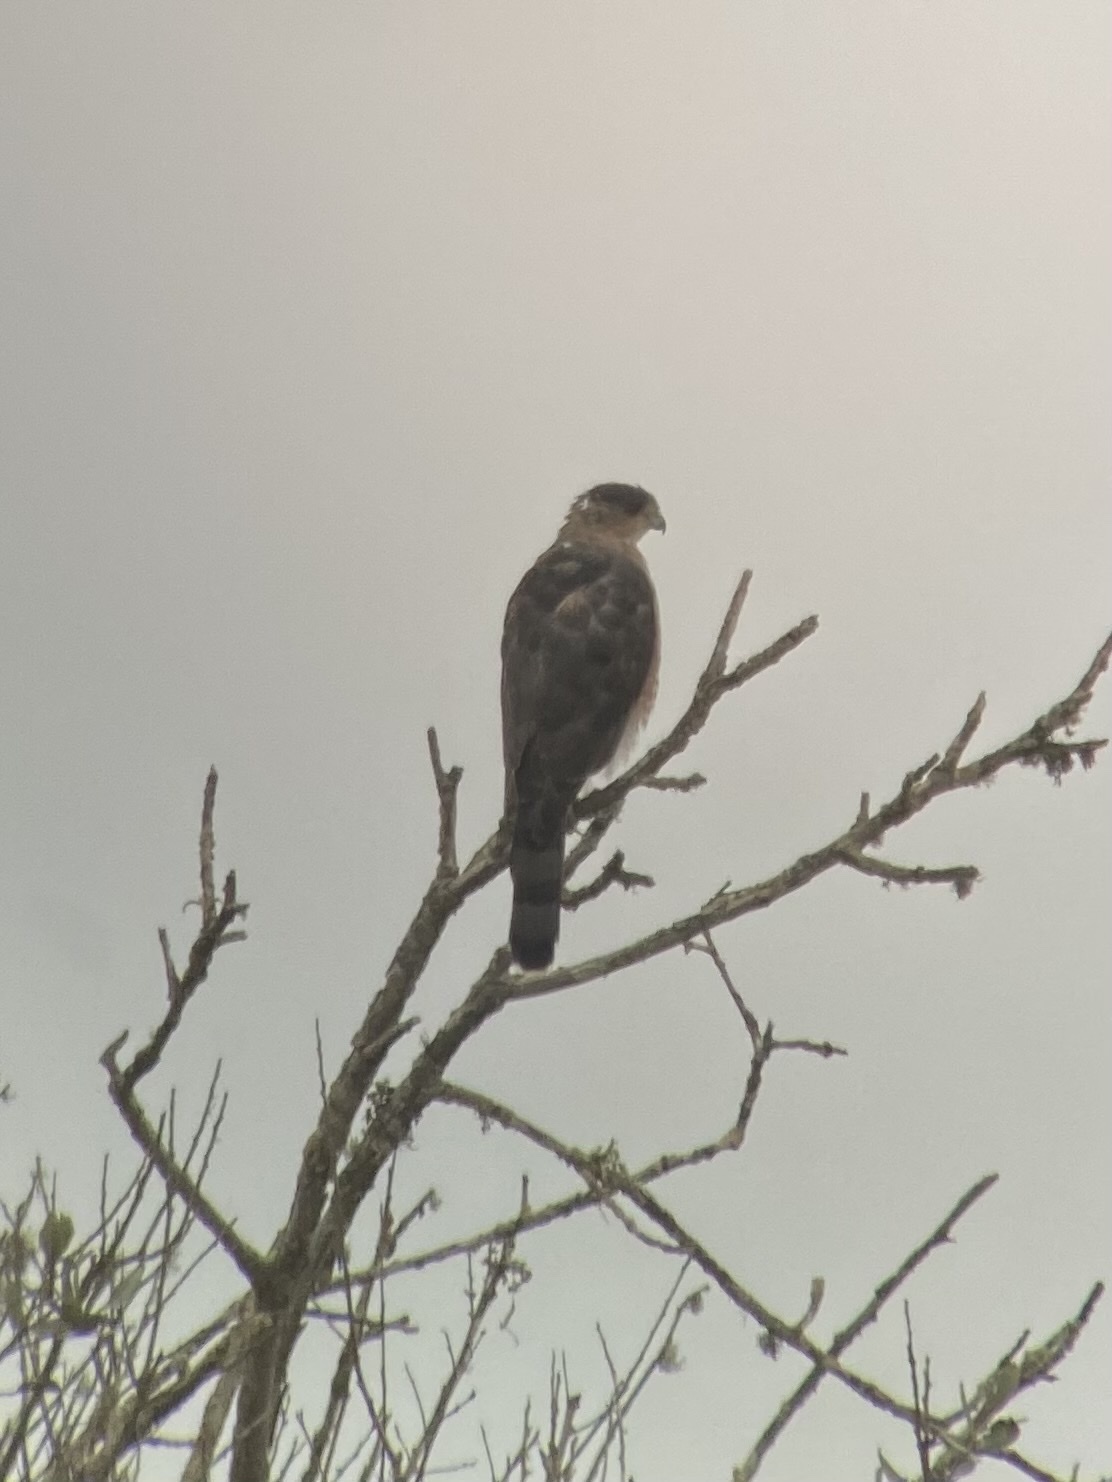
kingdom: Animalia
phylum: Chordata
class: Aves
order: Accipitriformes
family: Accipitridae
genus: Accipiter
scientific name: Accipiter cooperii
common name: Cooper's hawk
